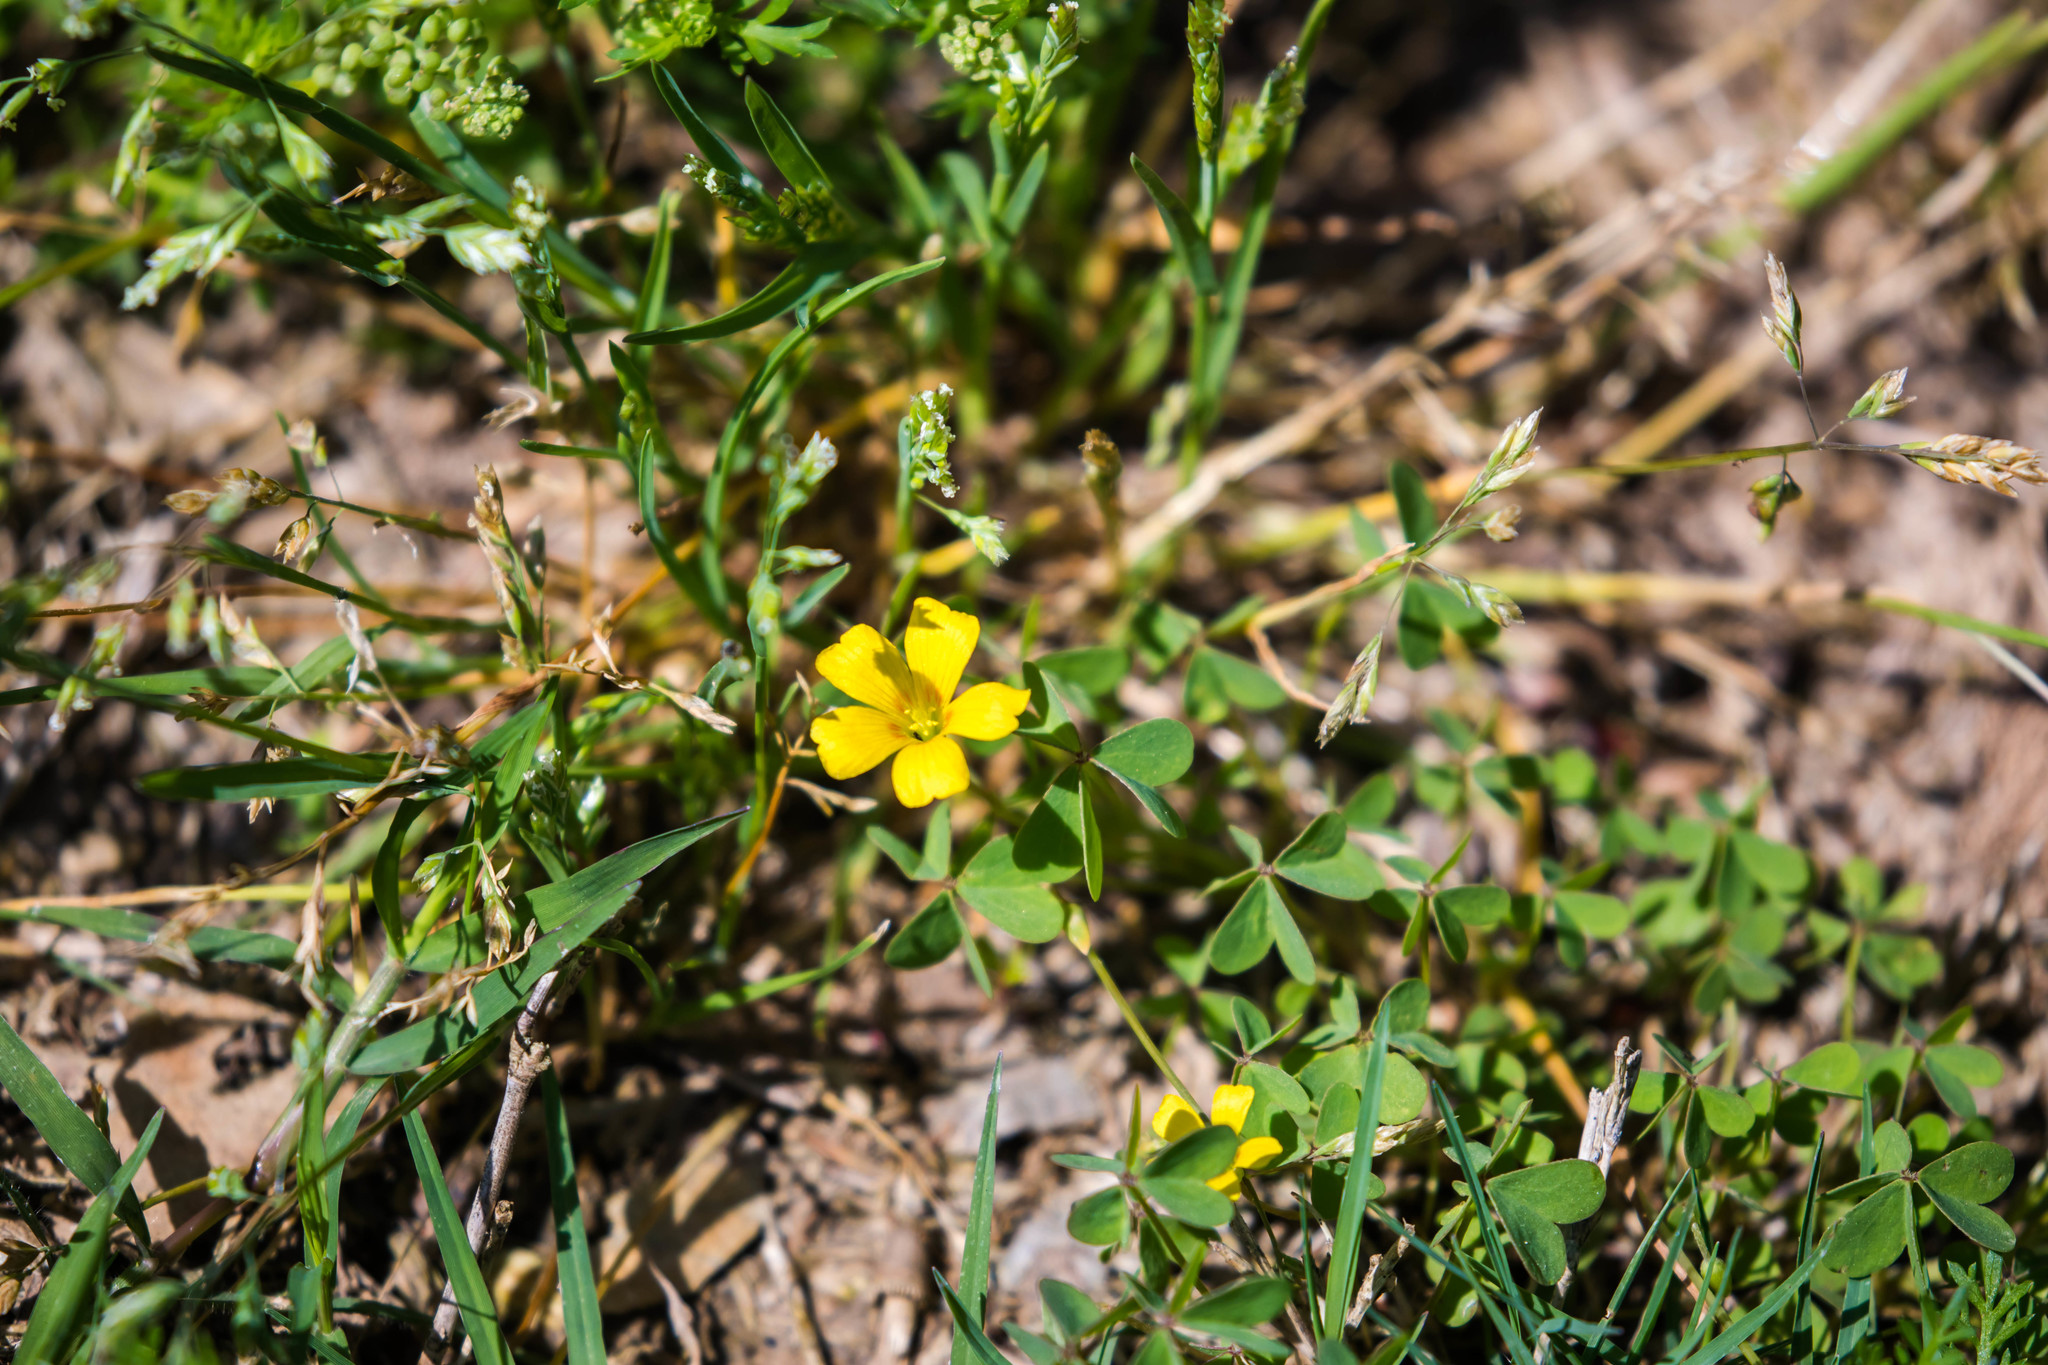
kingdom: Plantae
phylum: Tracheophyta
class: Magnoliopsida
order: Oxalidales
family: Oxalidaceae
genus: Oxalis
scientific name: Oxalis dillenii
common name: Sussex yellow-sorrel
